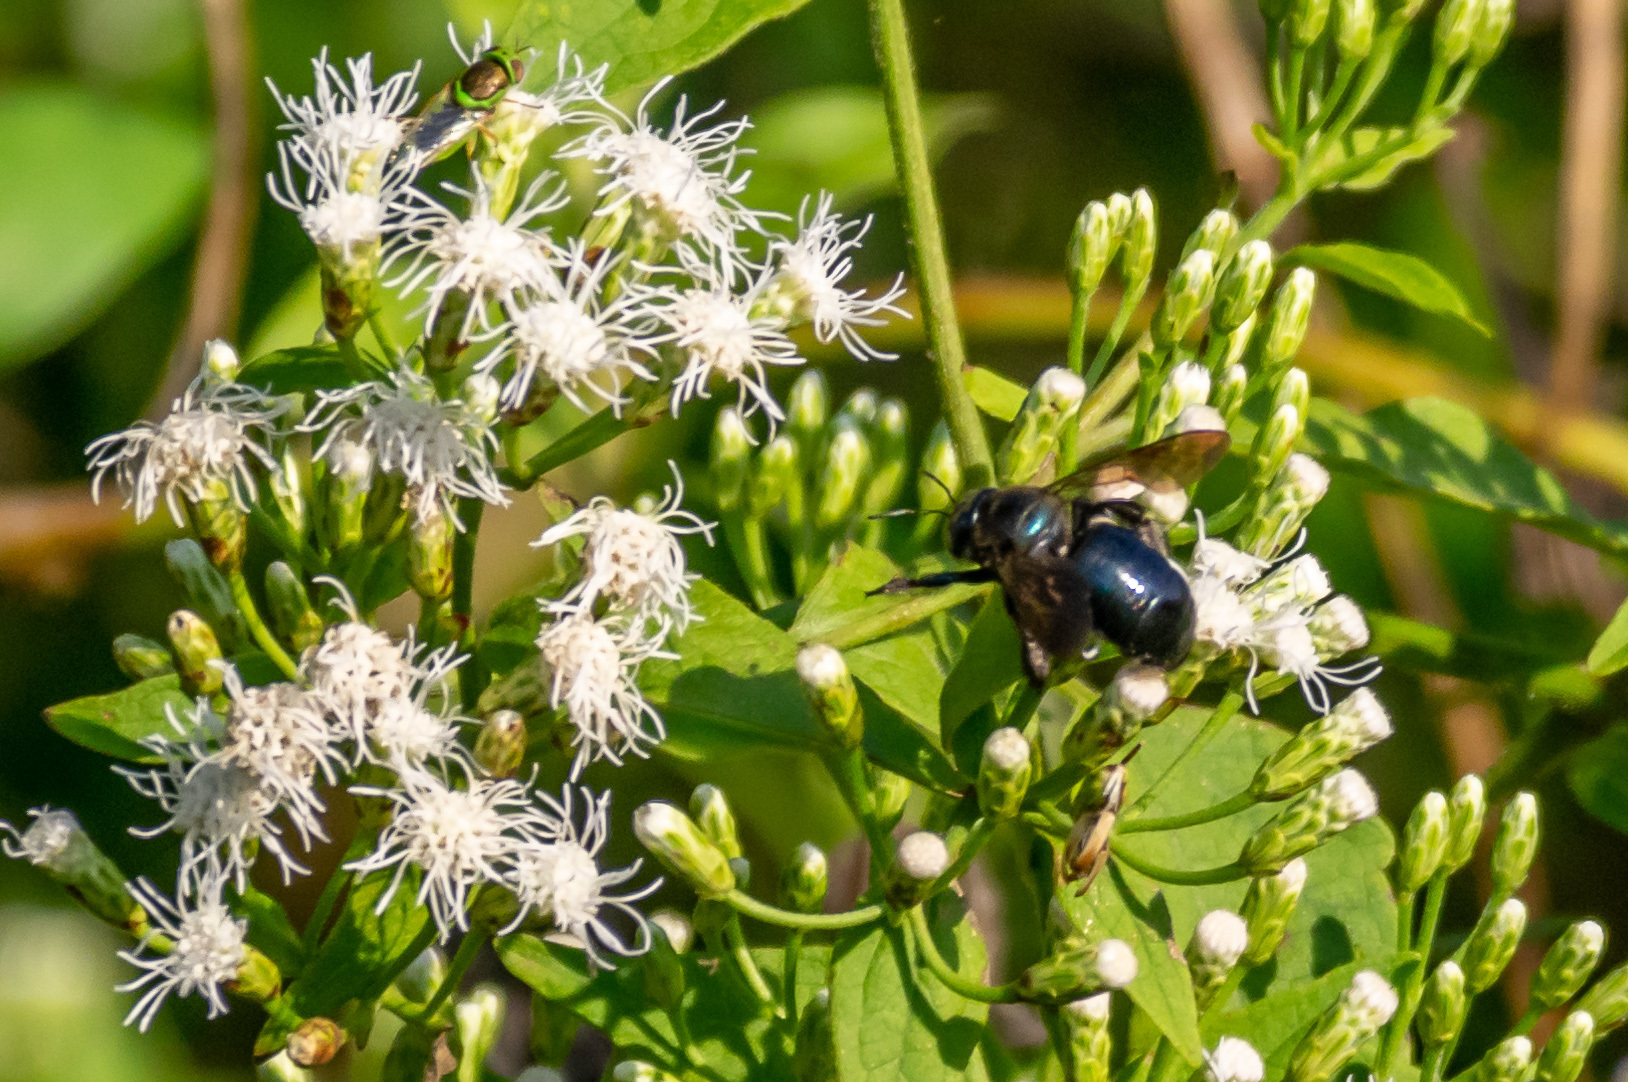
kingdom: Animalia
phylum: Arthropoda
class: Insecta
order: Hymenoptera
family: Apidae
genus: Xylocopa
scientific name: Xylocopa micans
